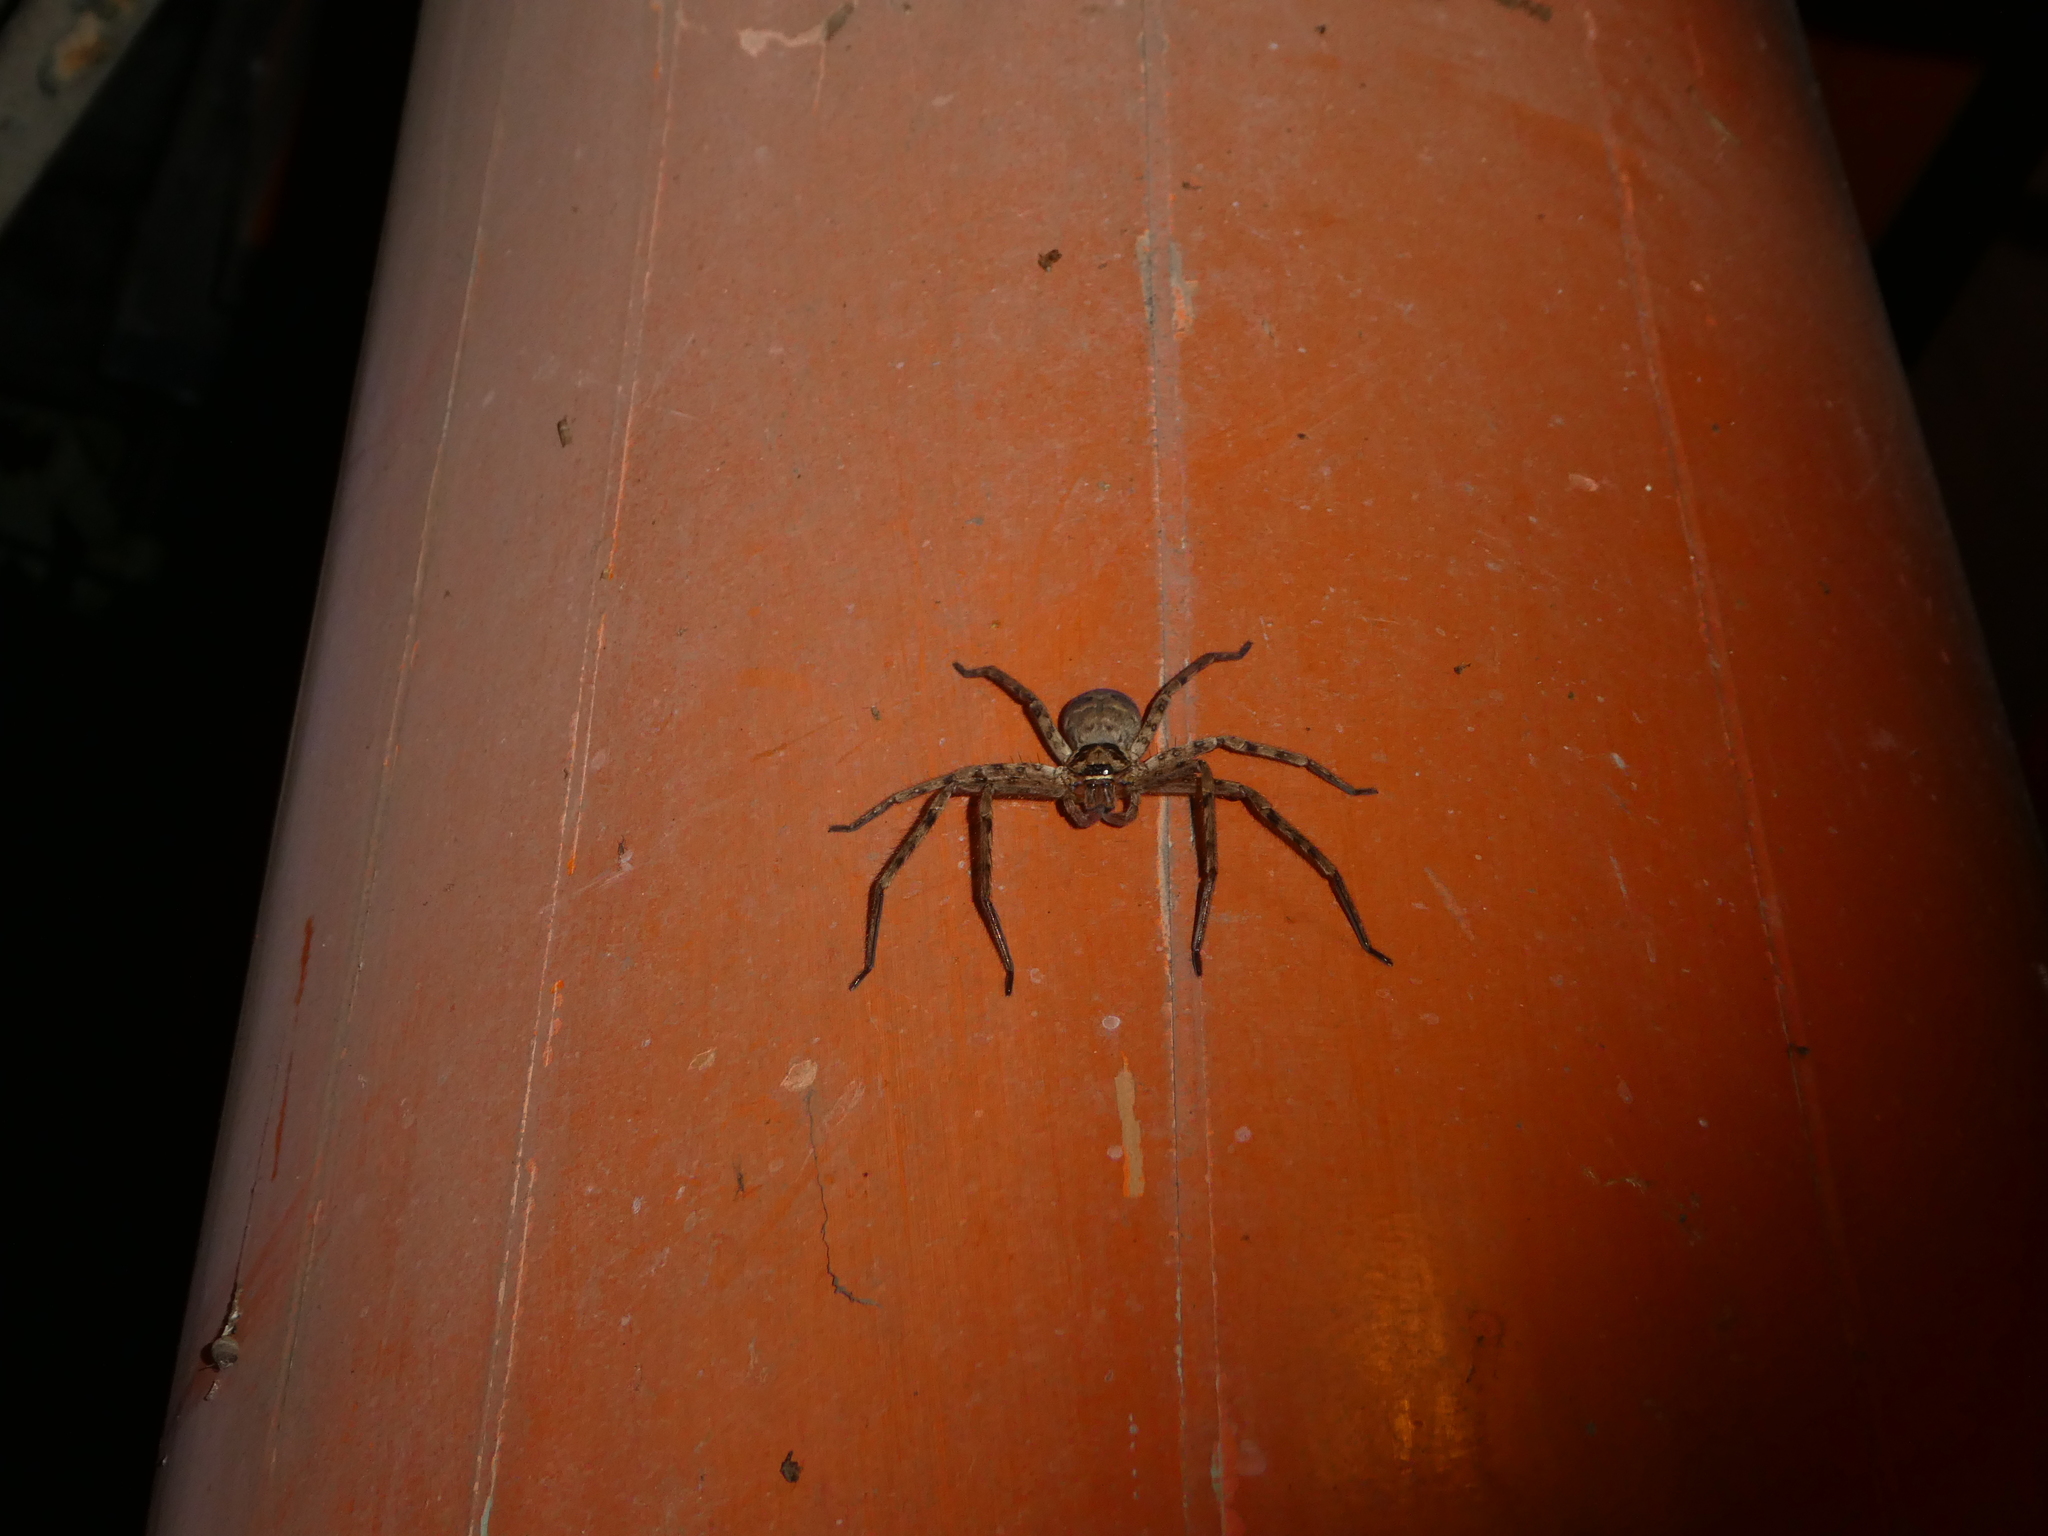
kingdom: Animalia
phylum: Arthropoda
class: Arachnida
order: Araneae
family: Sparassidae
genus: Heteropoda
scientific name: Heteropoda venatoria
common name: Huntsman spider
